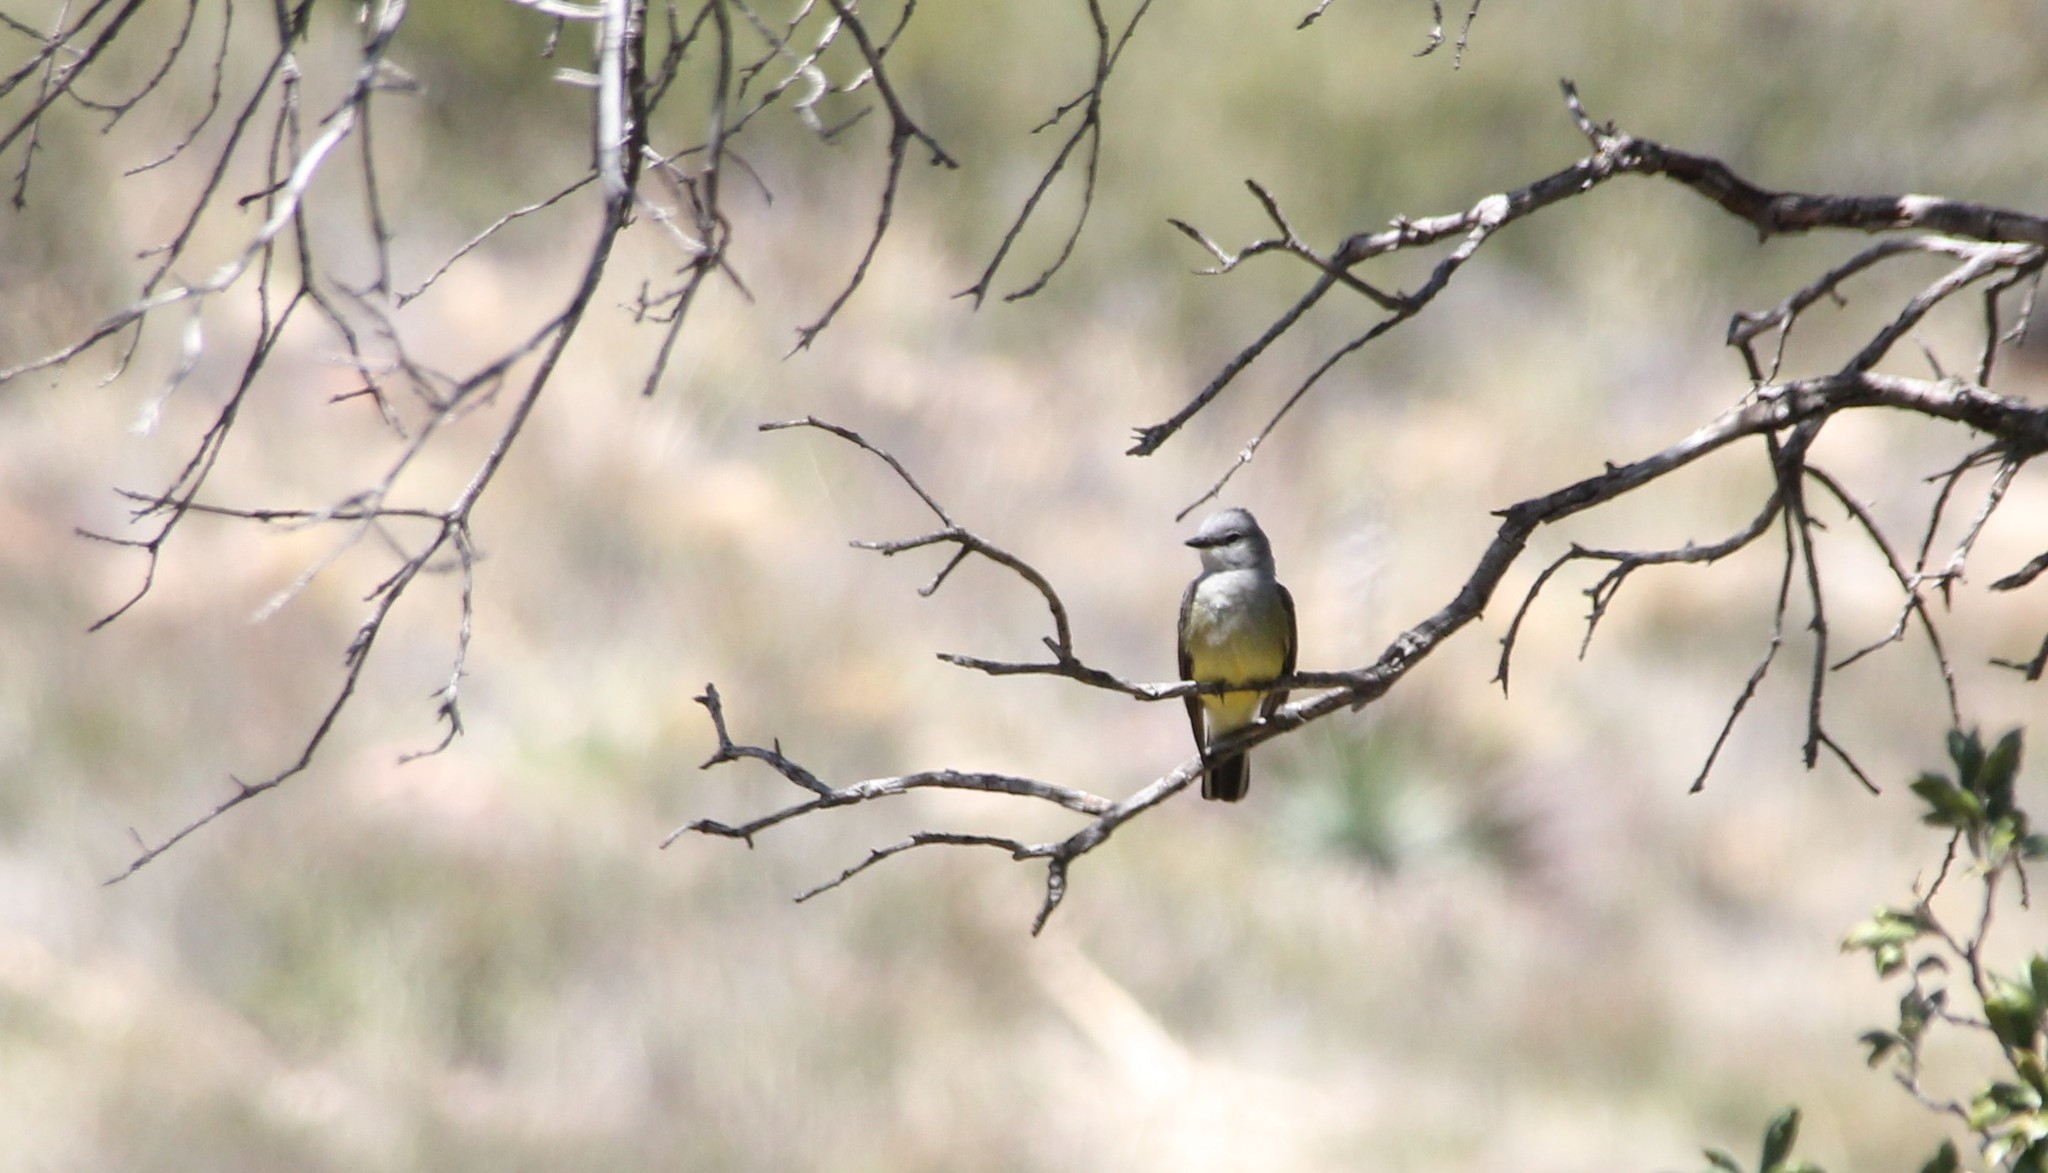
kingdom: Animalia
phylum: Chordata
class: Aves
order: Passeriformes
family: Tyrannidae
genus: Tyrannus
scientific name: Tyrannus verticalis
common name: Western kingbird
